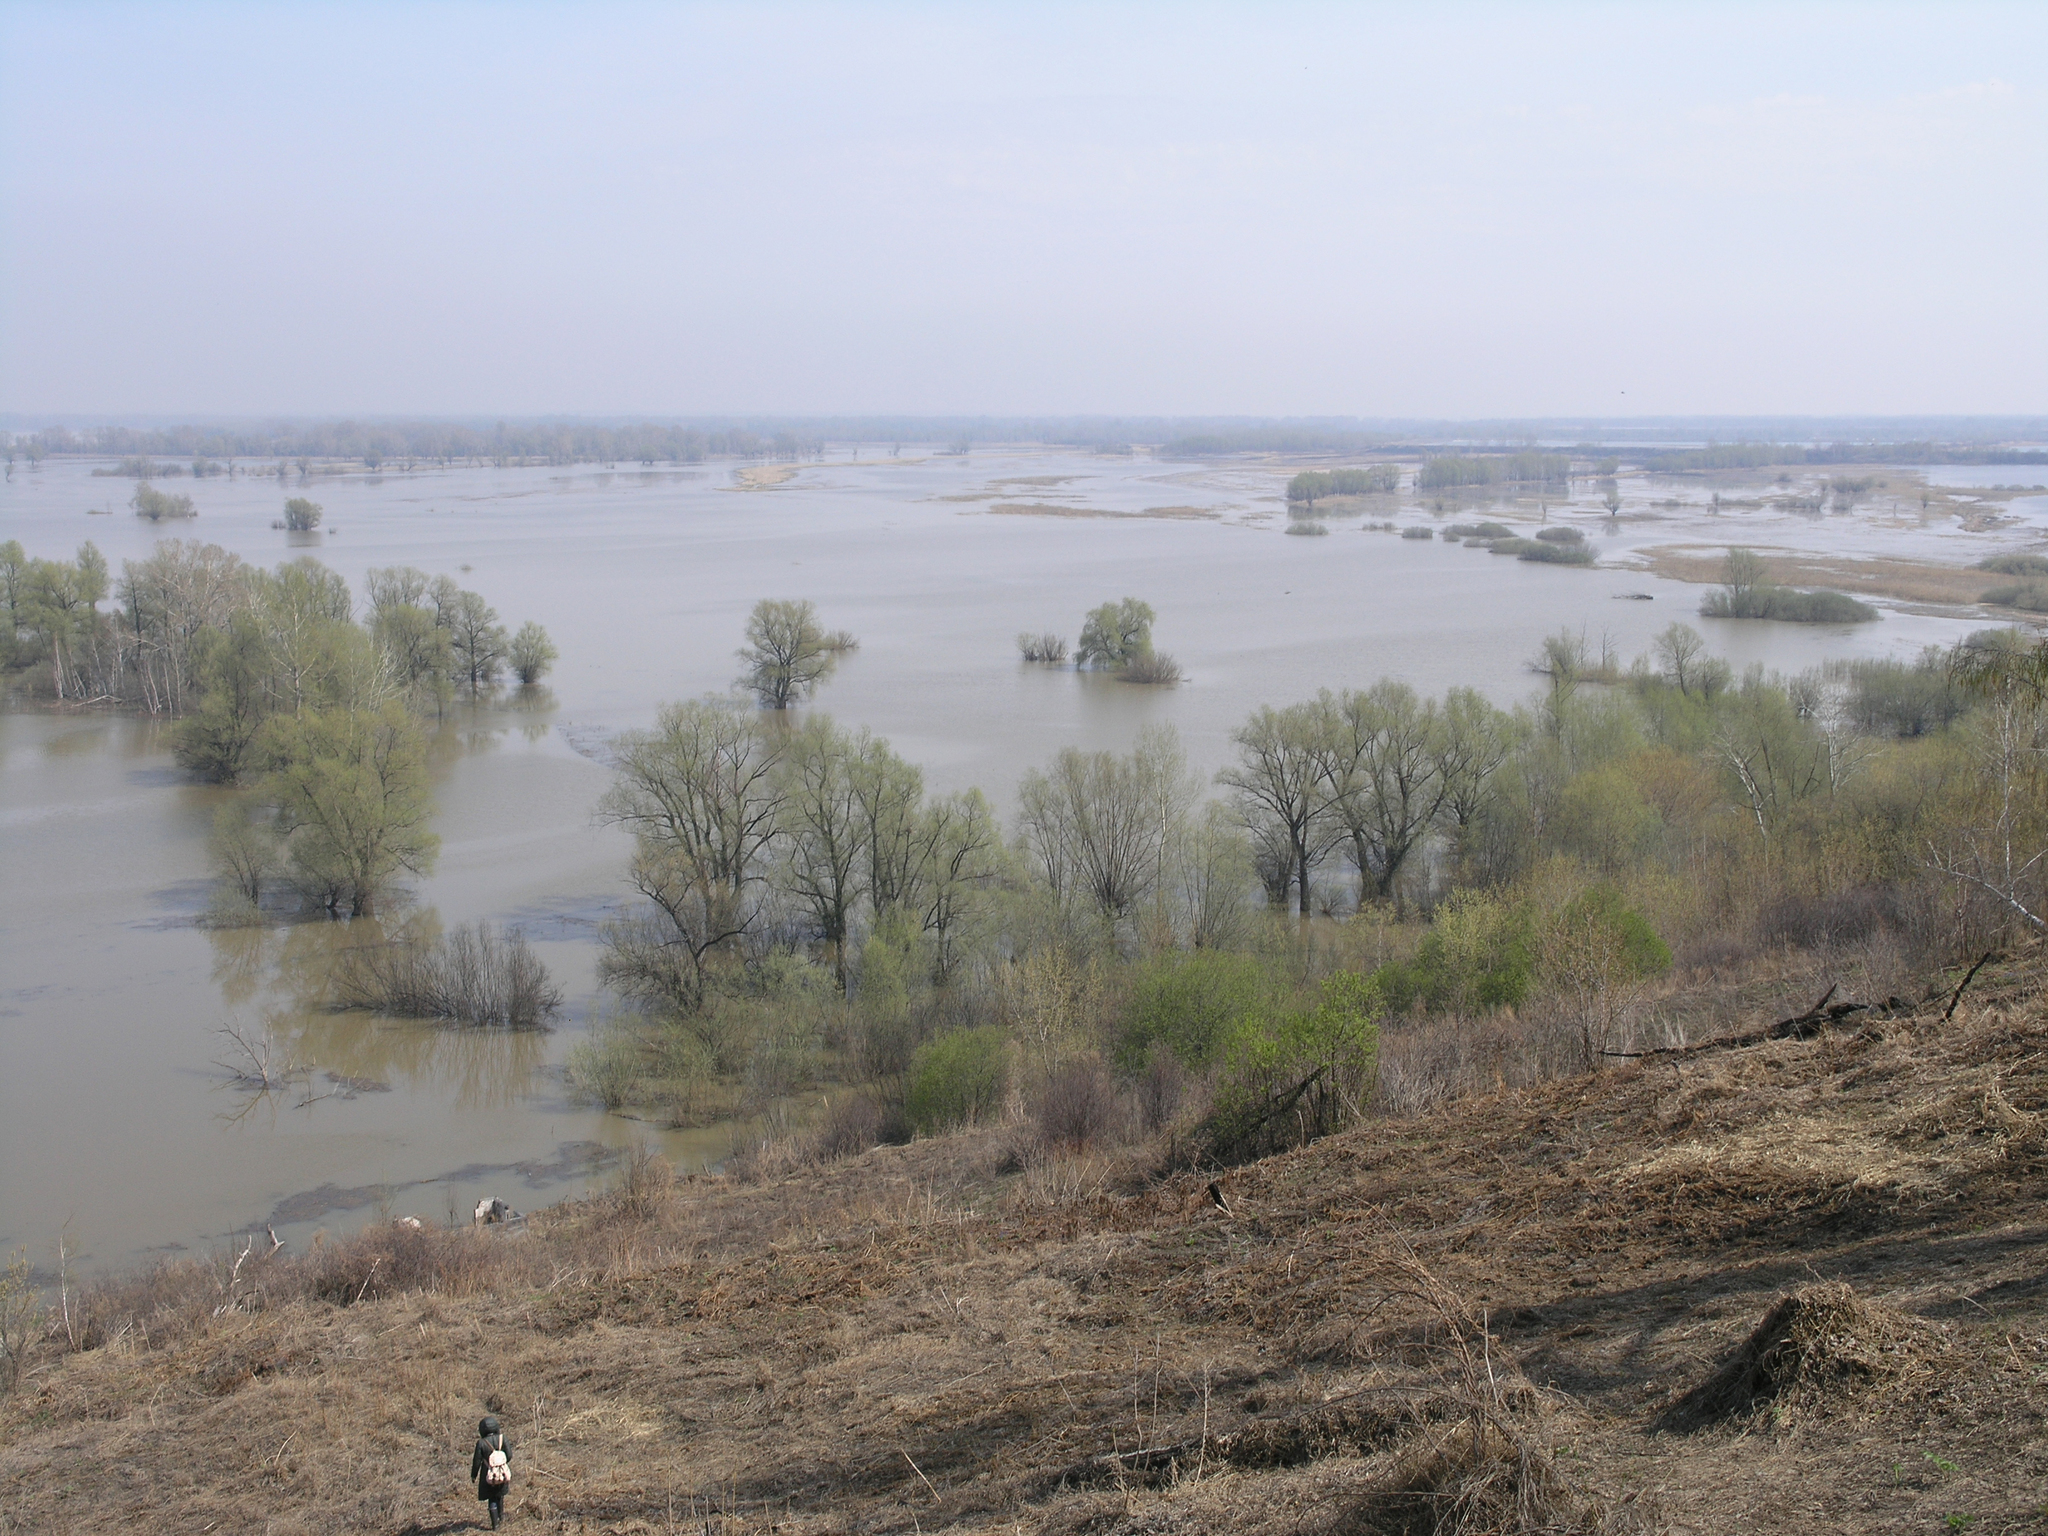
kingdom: Plantae
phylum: Tracheophyta
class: Magnoliopsida
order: Malpighiales
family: Salicaceae
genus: Salix
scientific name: Salix alba
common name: White willow
